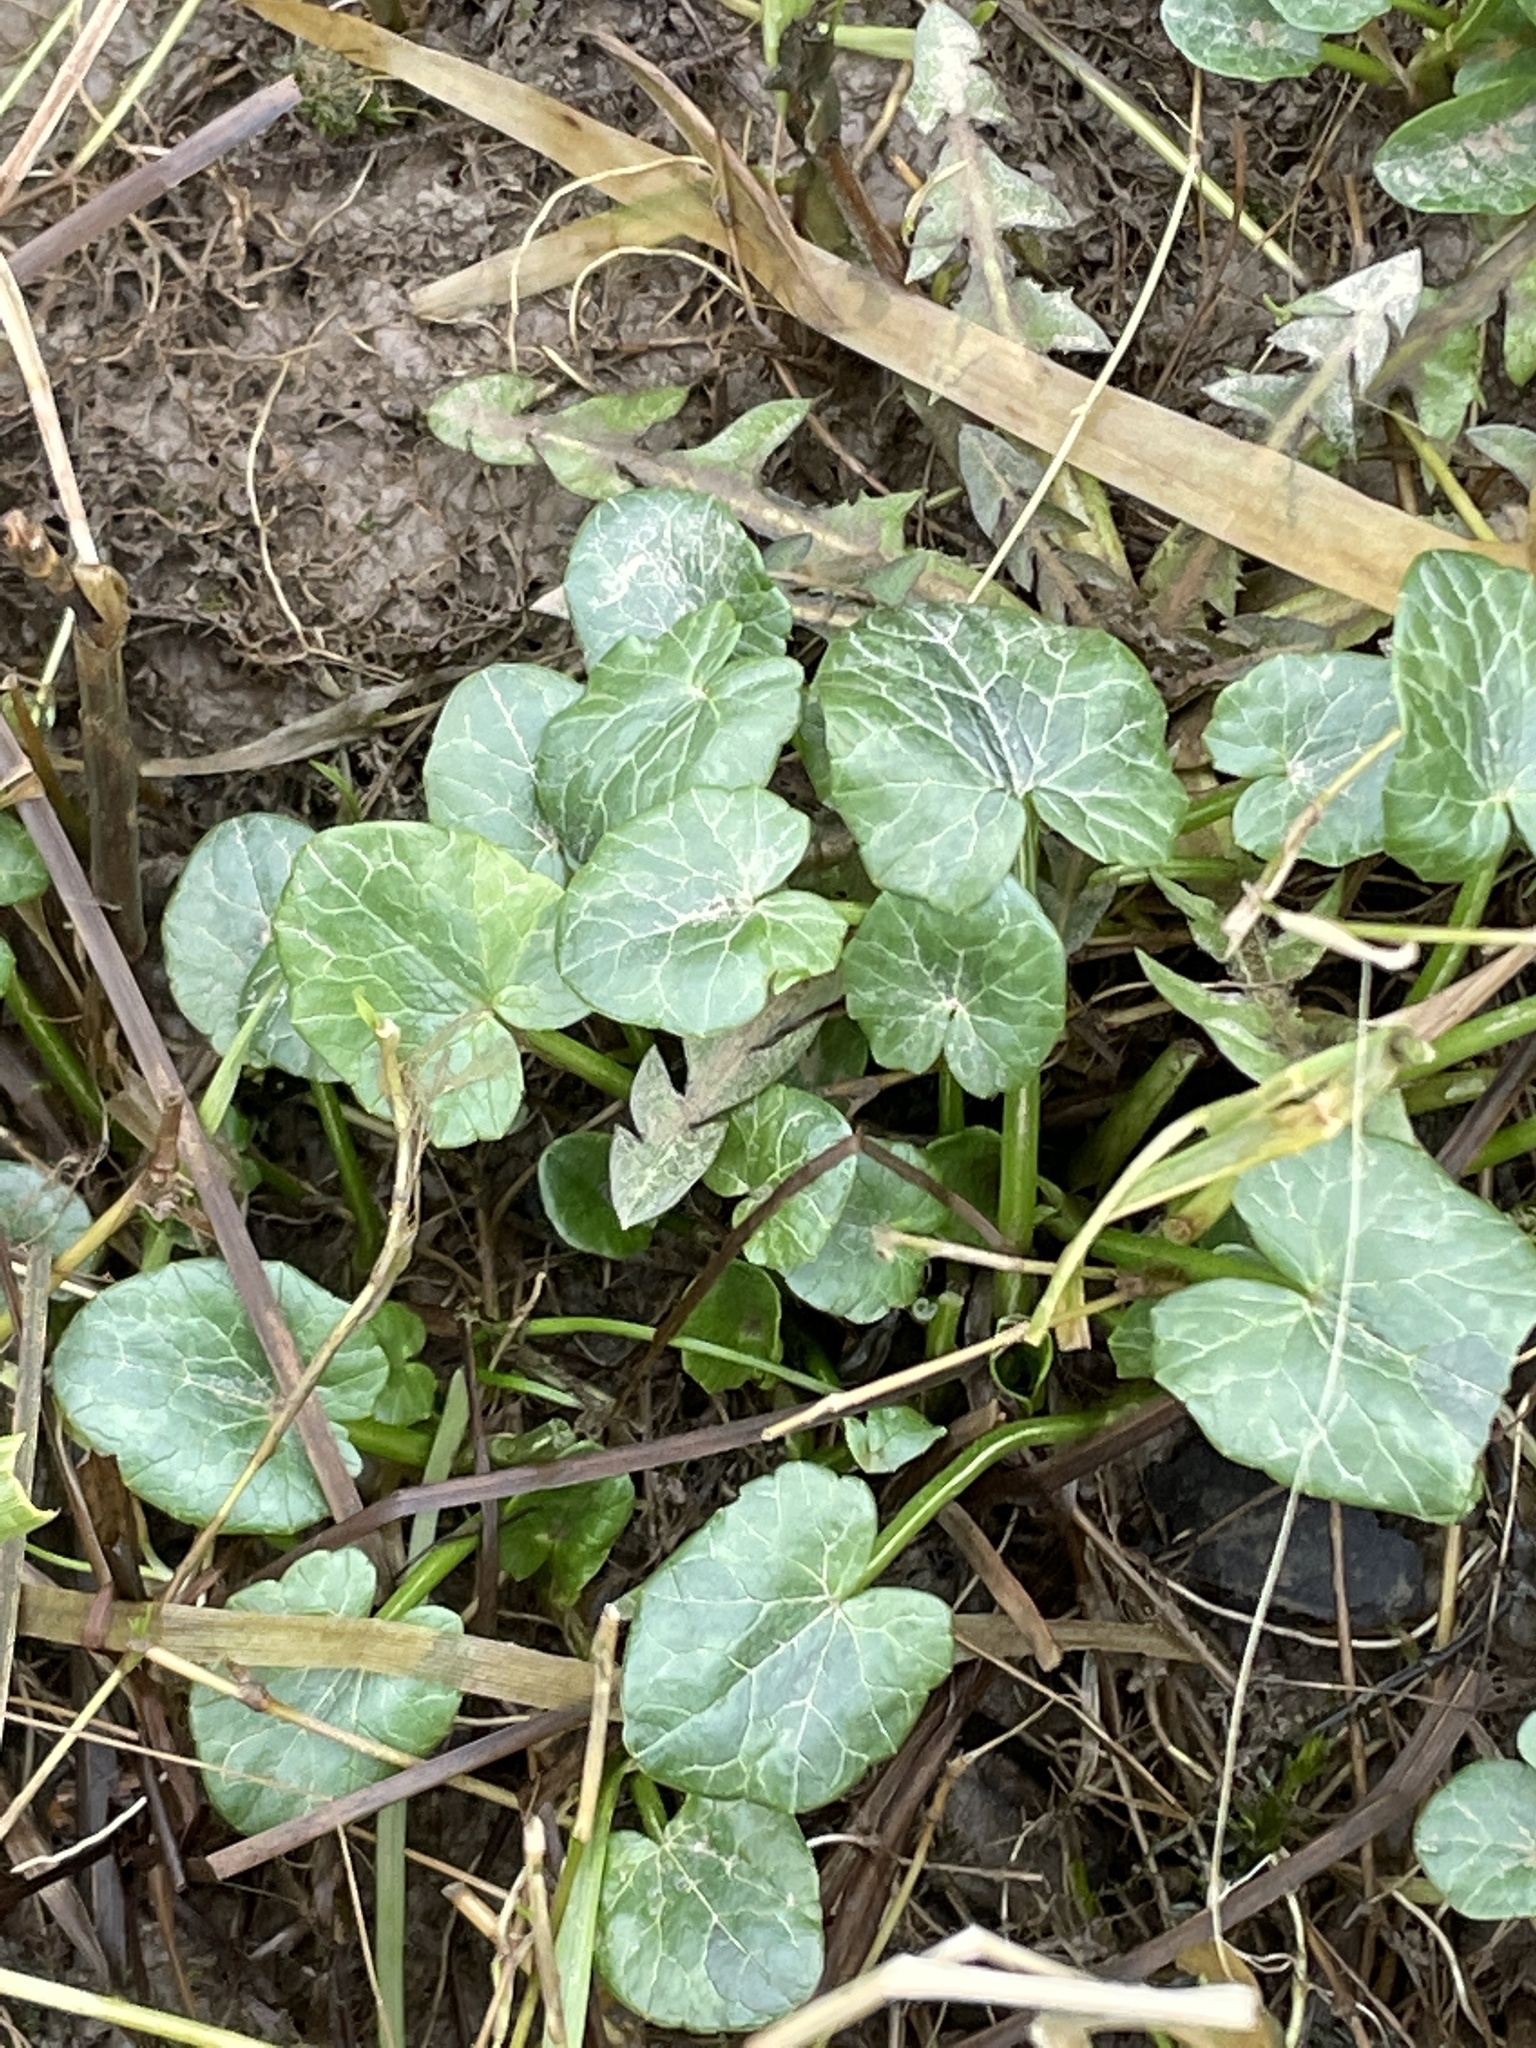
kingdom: Plantae
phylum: Tracheophyta
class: Magnoliopsida
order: Ranunculales
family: Ranunculaceae
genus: Ficaria
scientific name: Ficaria verna
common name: Lesser celandine
